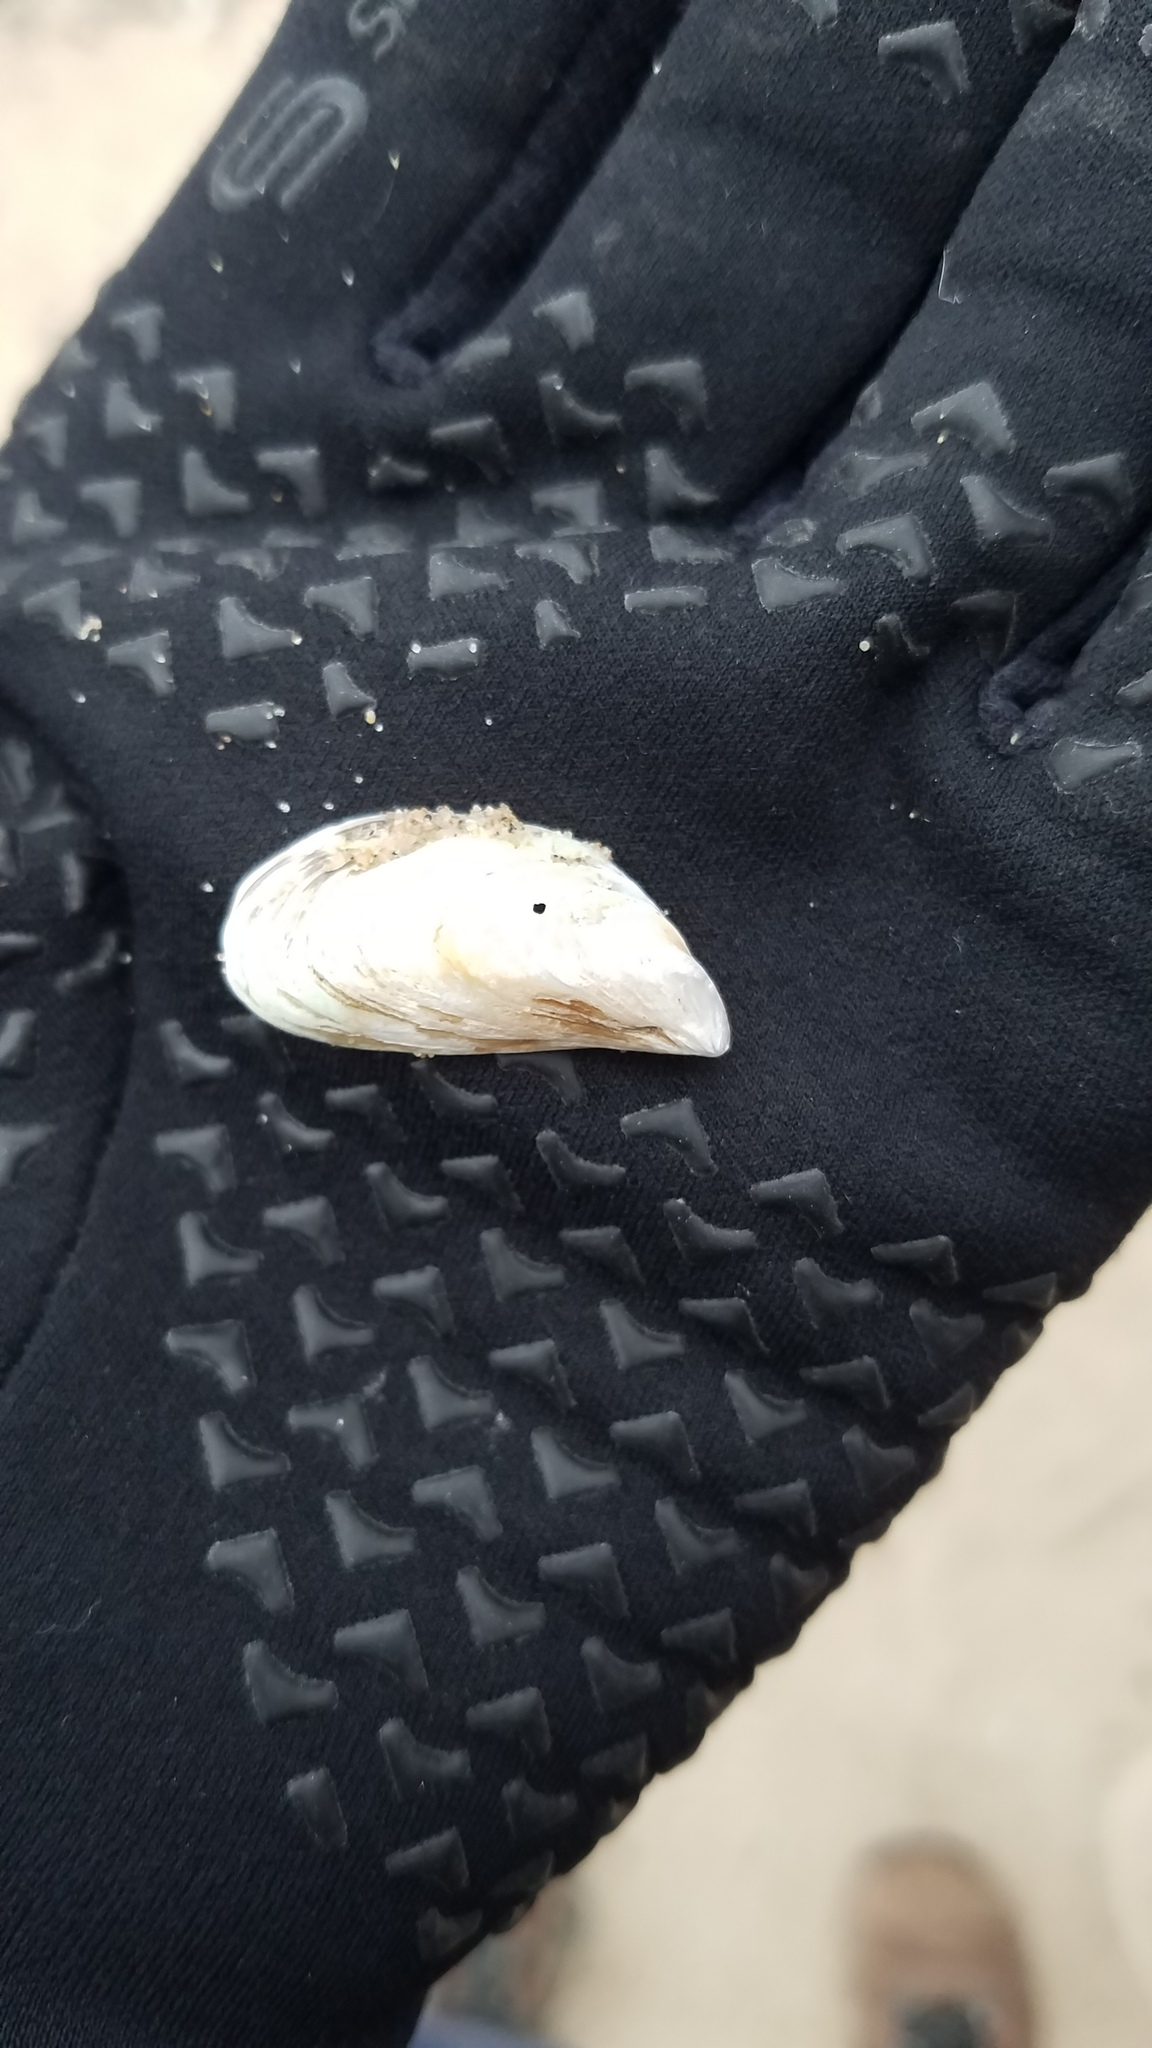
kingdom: Animalia
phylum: Mollusca
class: Bivalvia
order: Myida
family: Dreissenidae
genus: Dreissena
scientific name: Dreissena bugensis
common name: Quagga mussel
